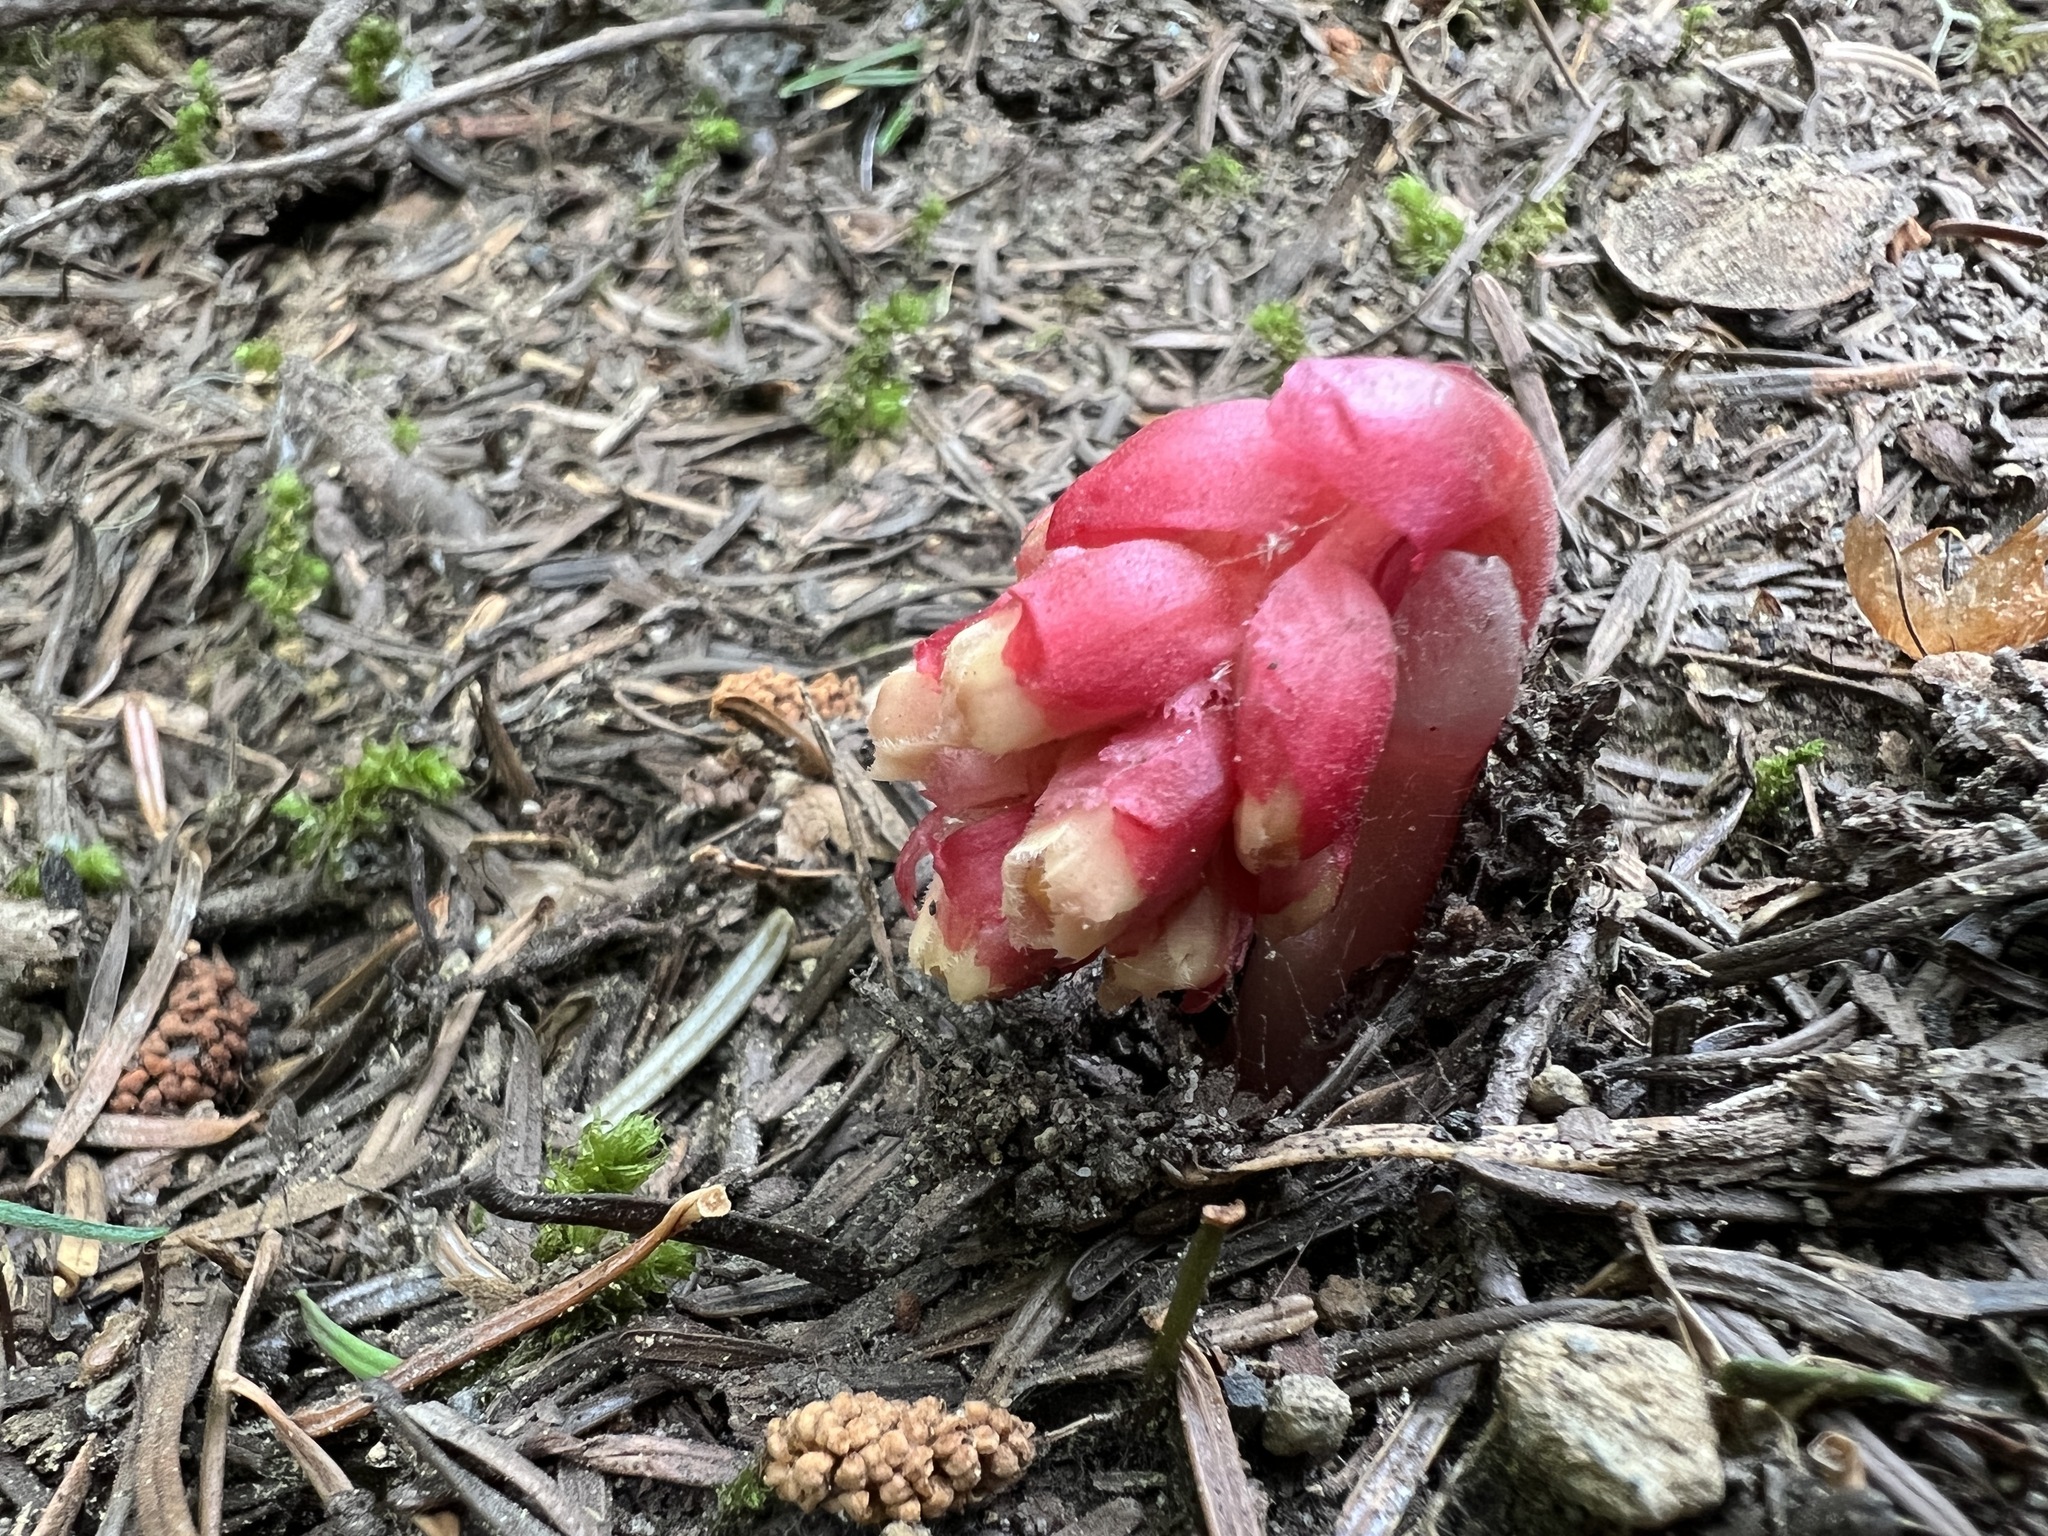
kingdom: Plantae
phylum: Tracheophyta
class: Magnoliopsida
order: Ericales
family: Ericaceae
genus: Hypopitys
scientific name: Hypopitys monotropa
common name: Yellow bird's-nest
